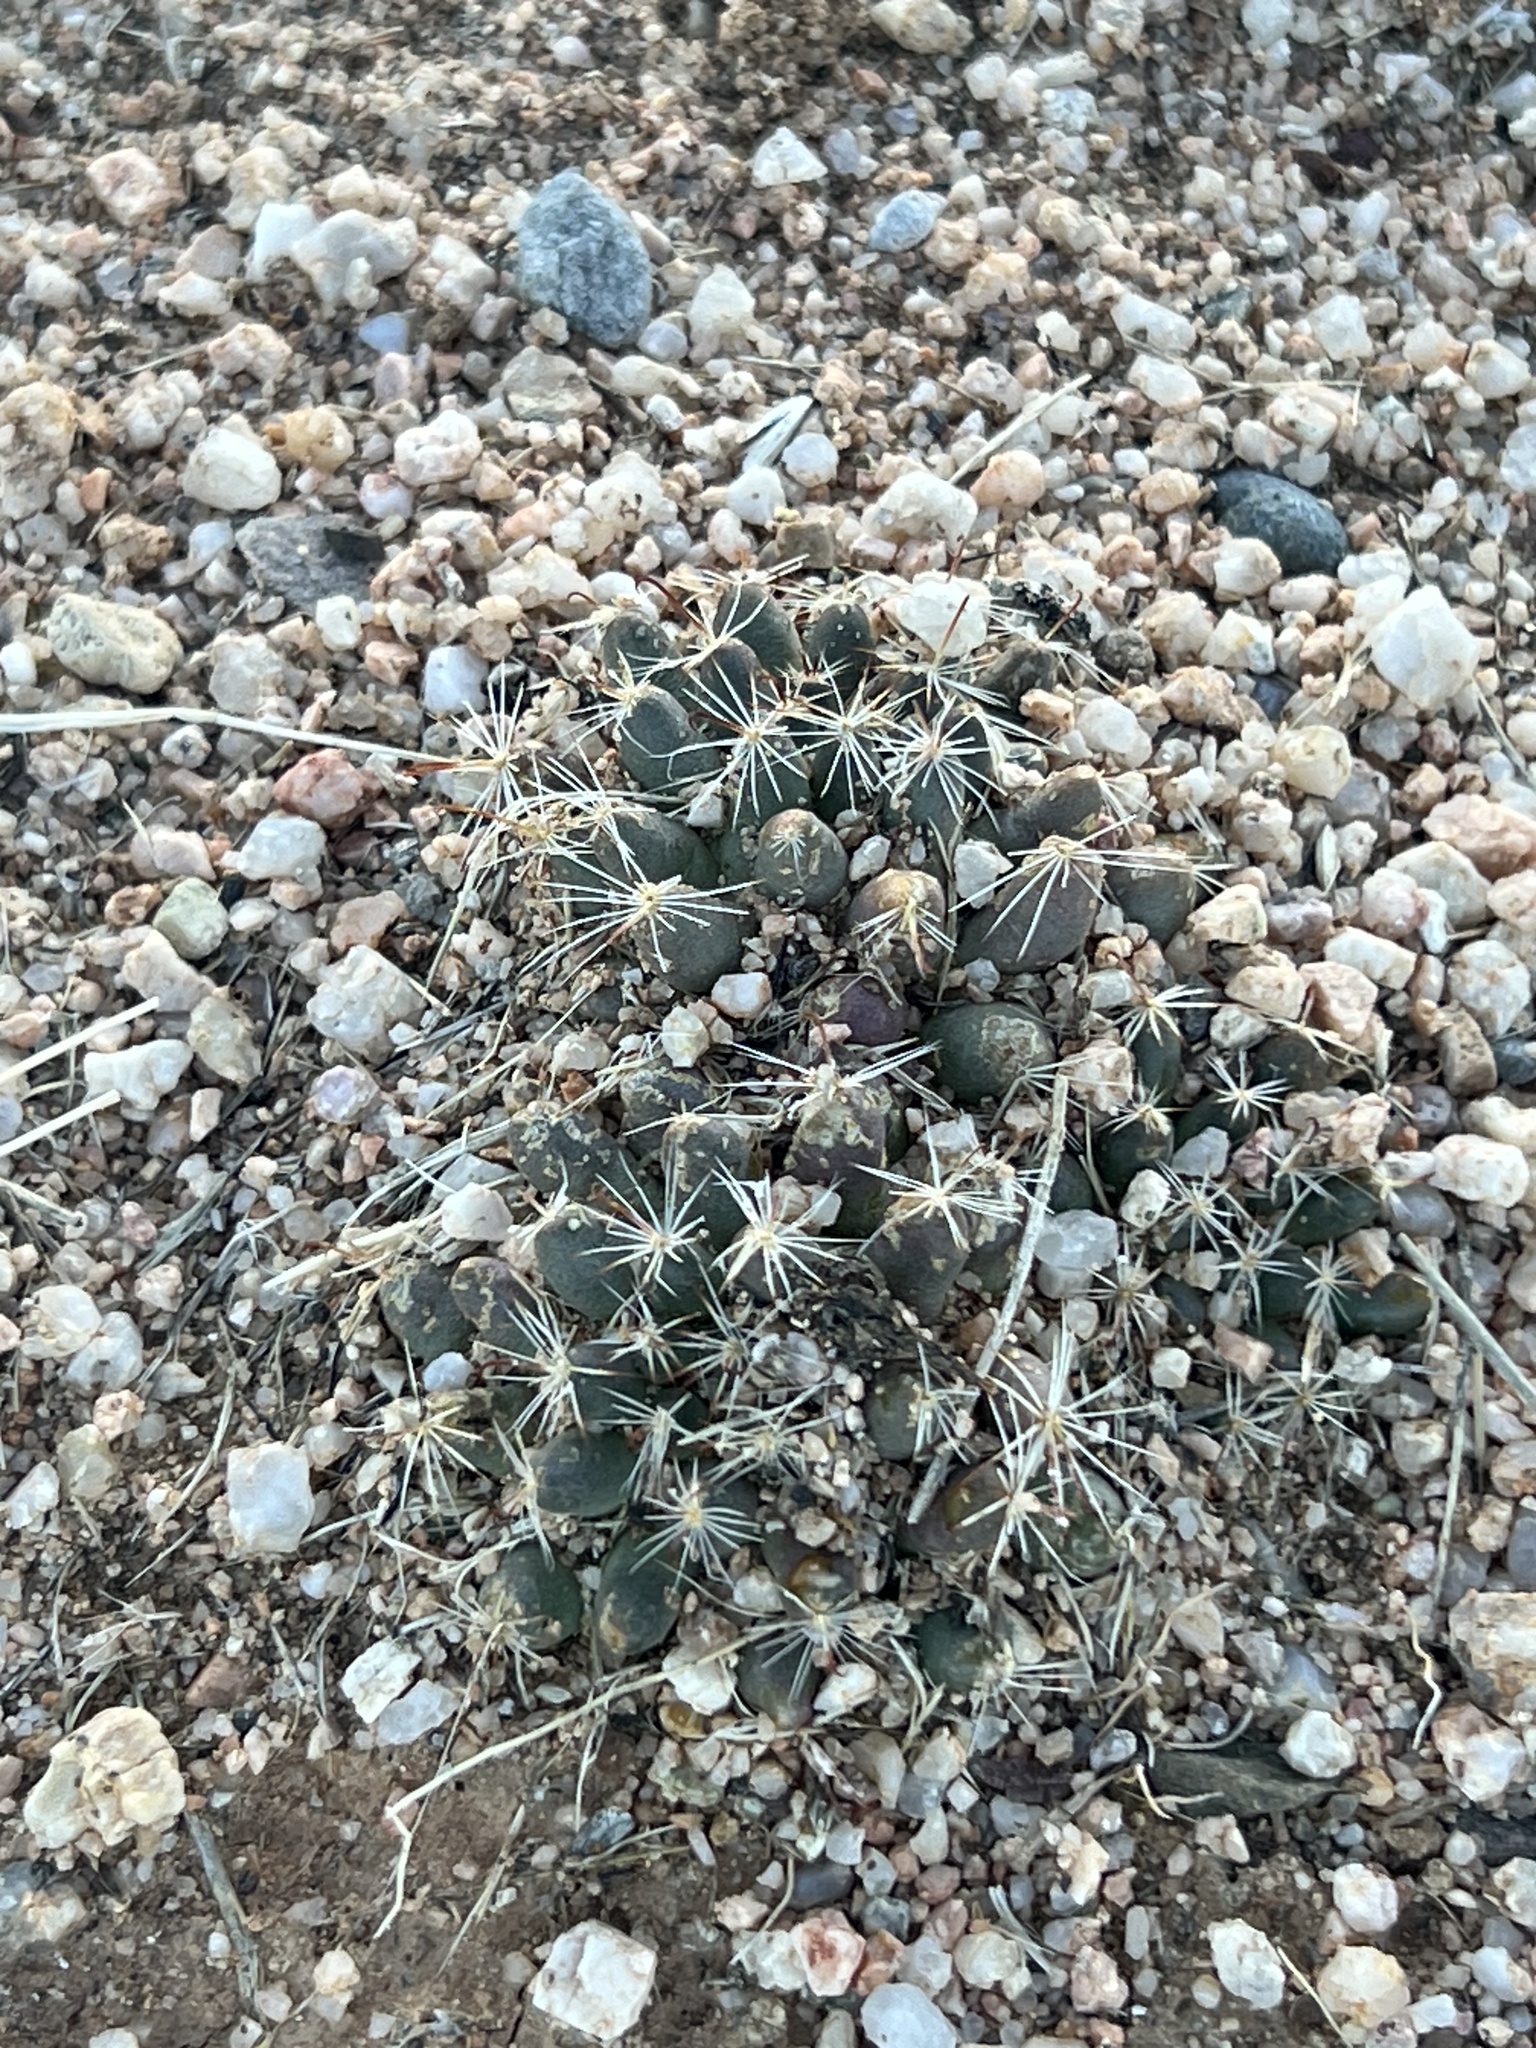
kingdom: Plantae
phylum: Tracheophyta
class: Magnoliopsida
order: Caryophyllales
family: Cactaceae
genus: Cochemiea
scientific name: Cochemiea wrightii
